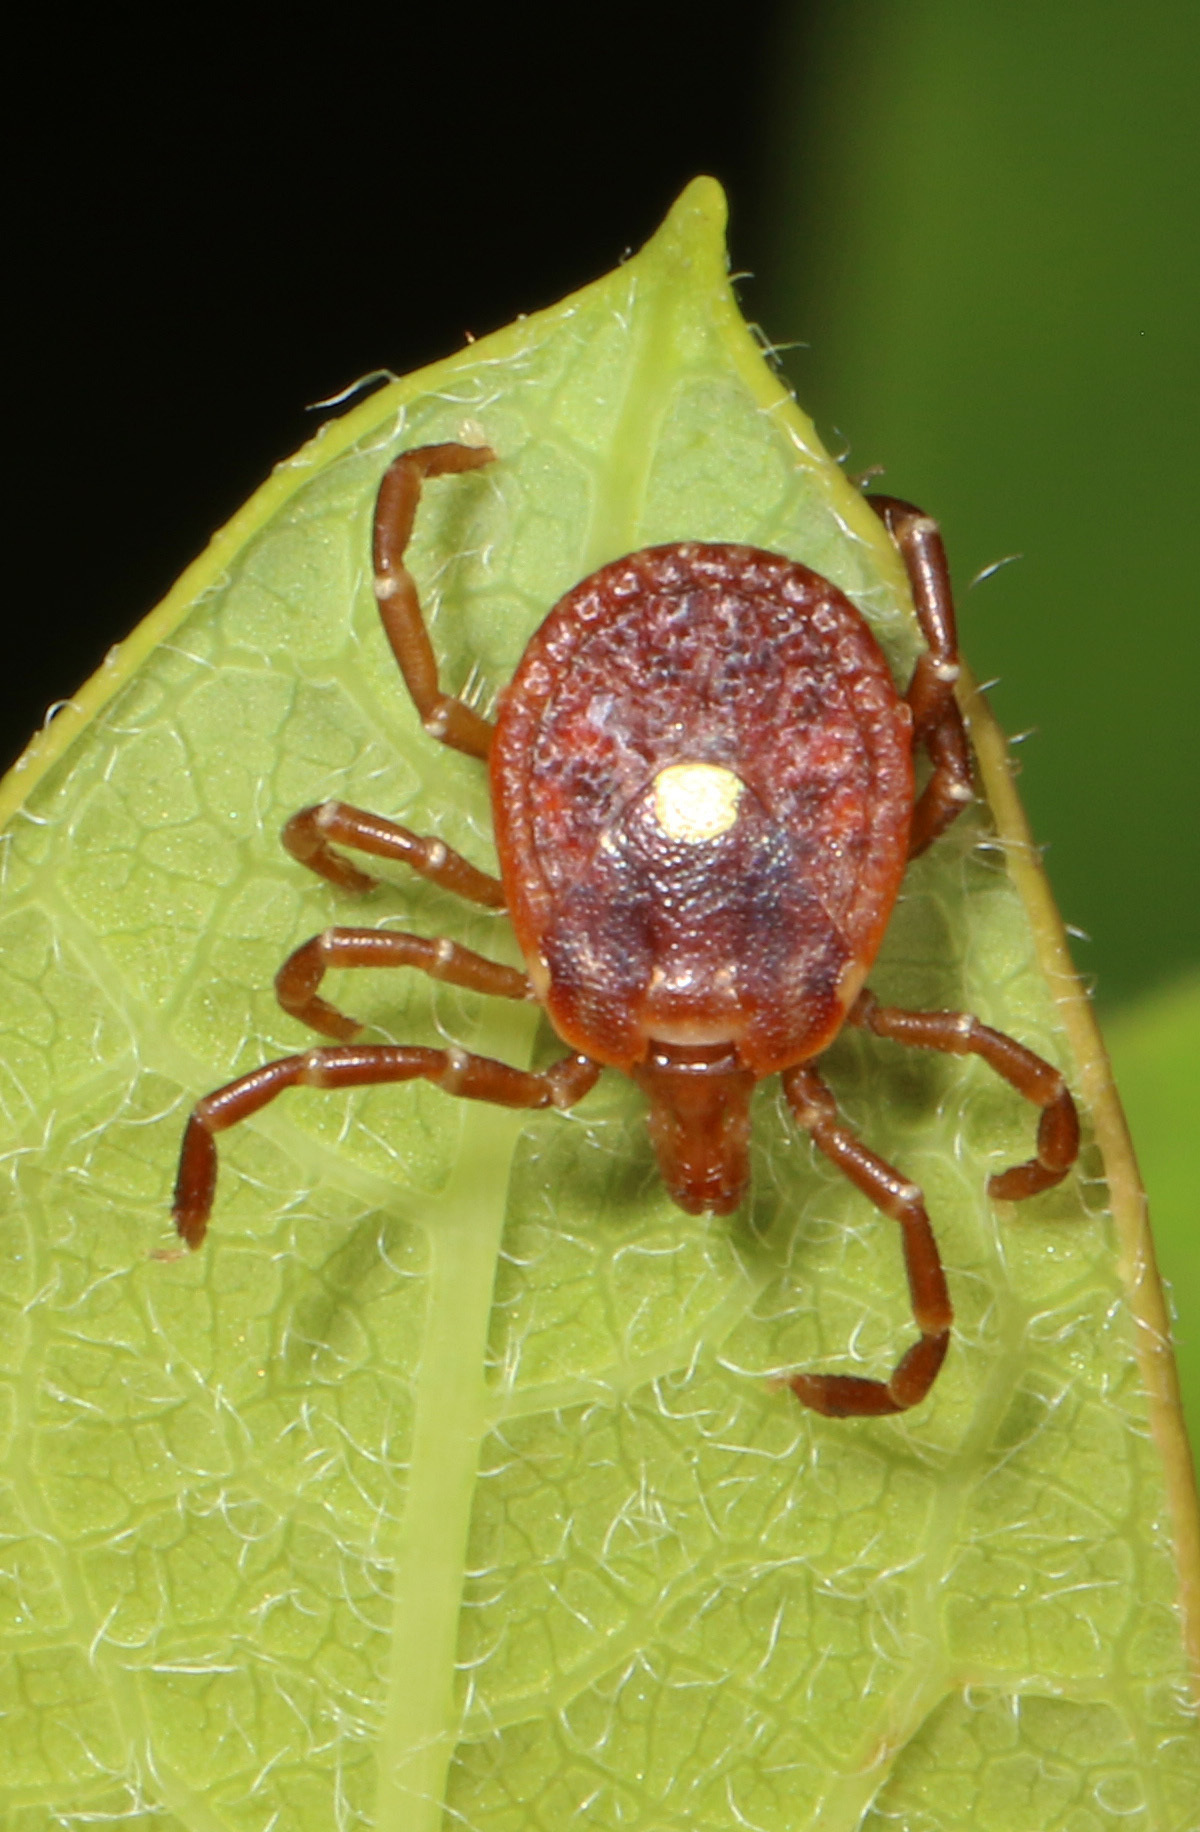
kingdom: Animalia
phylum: Arthropoda
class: Arachnida
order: Ixodida
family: Ixodidae
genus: Amblyomma
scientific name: Amblyomma americanum
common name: Lone star tick
